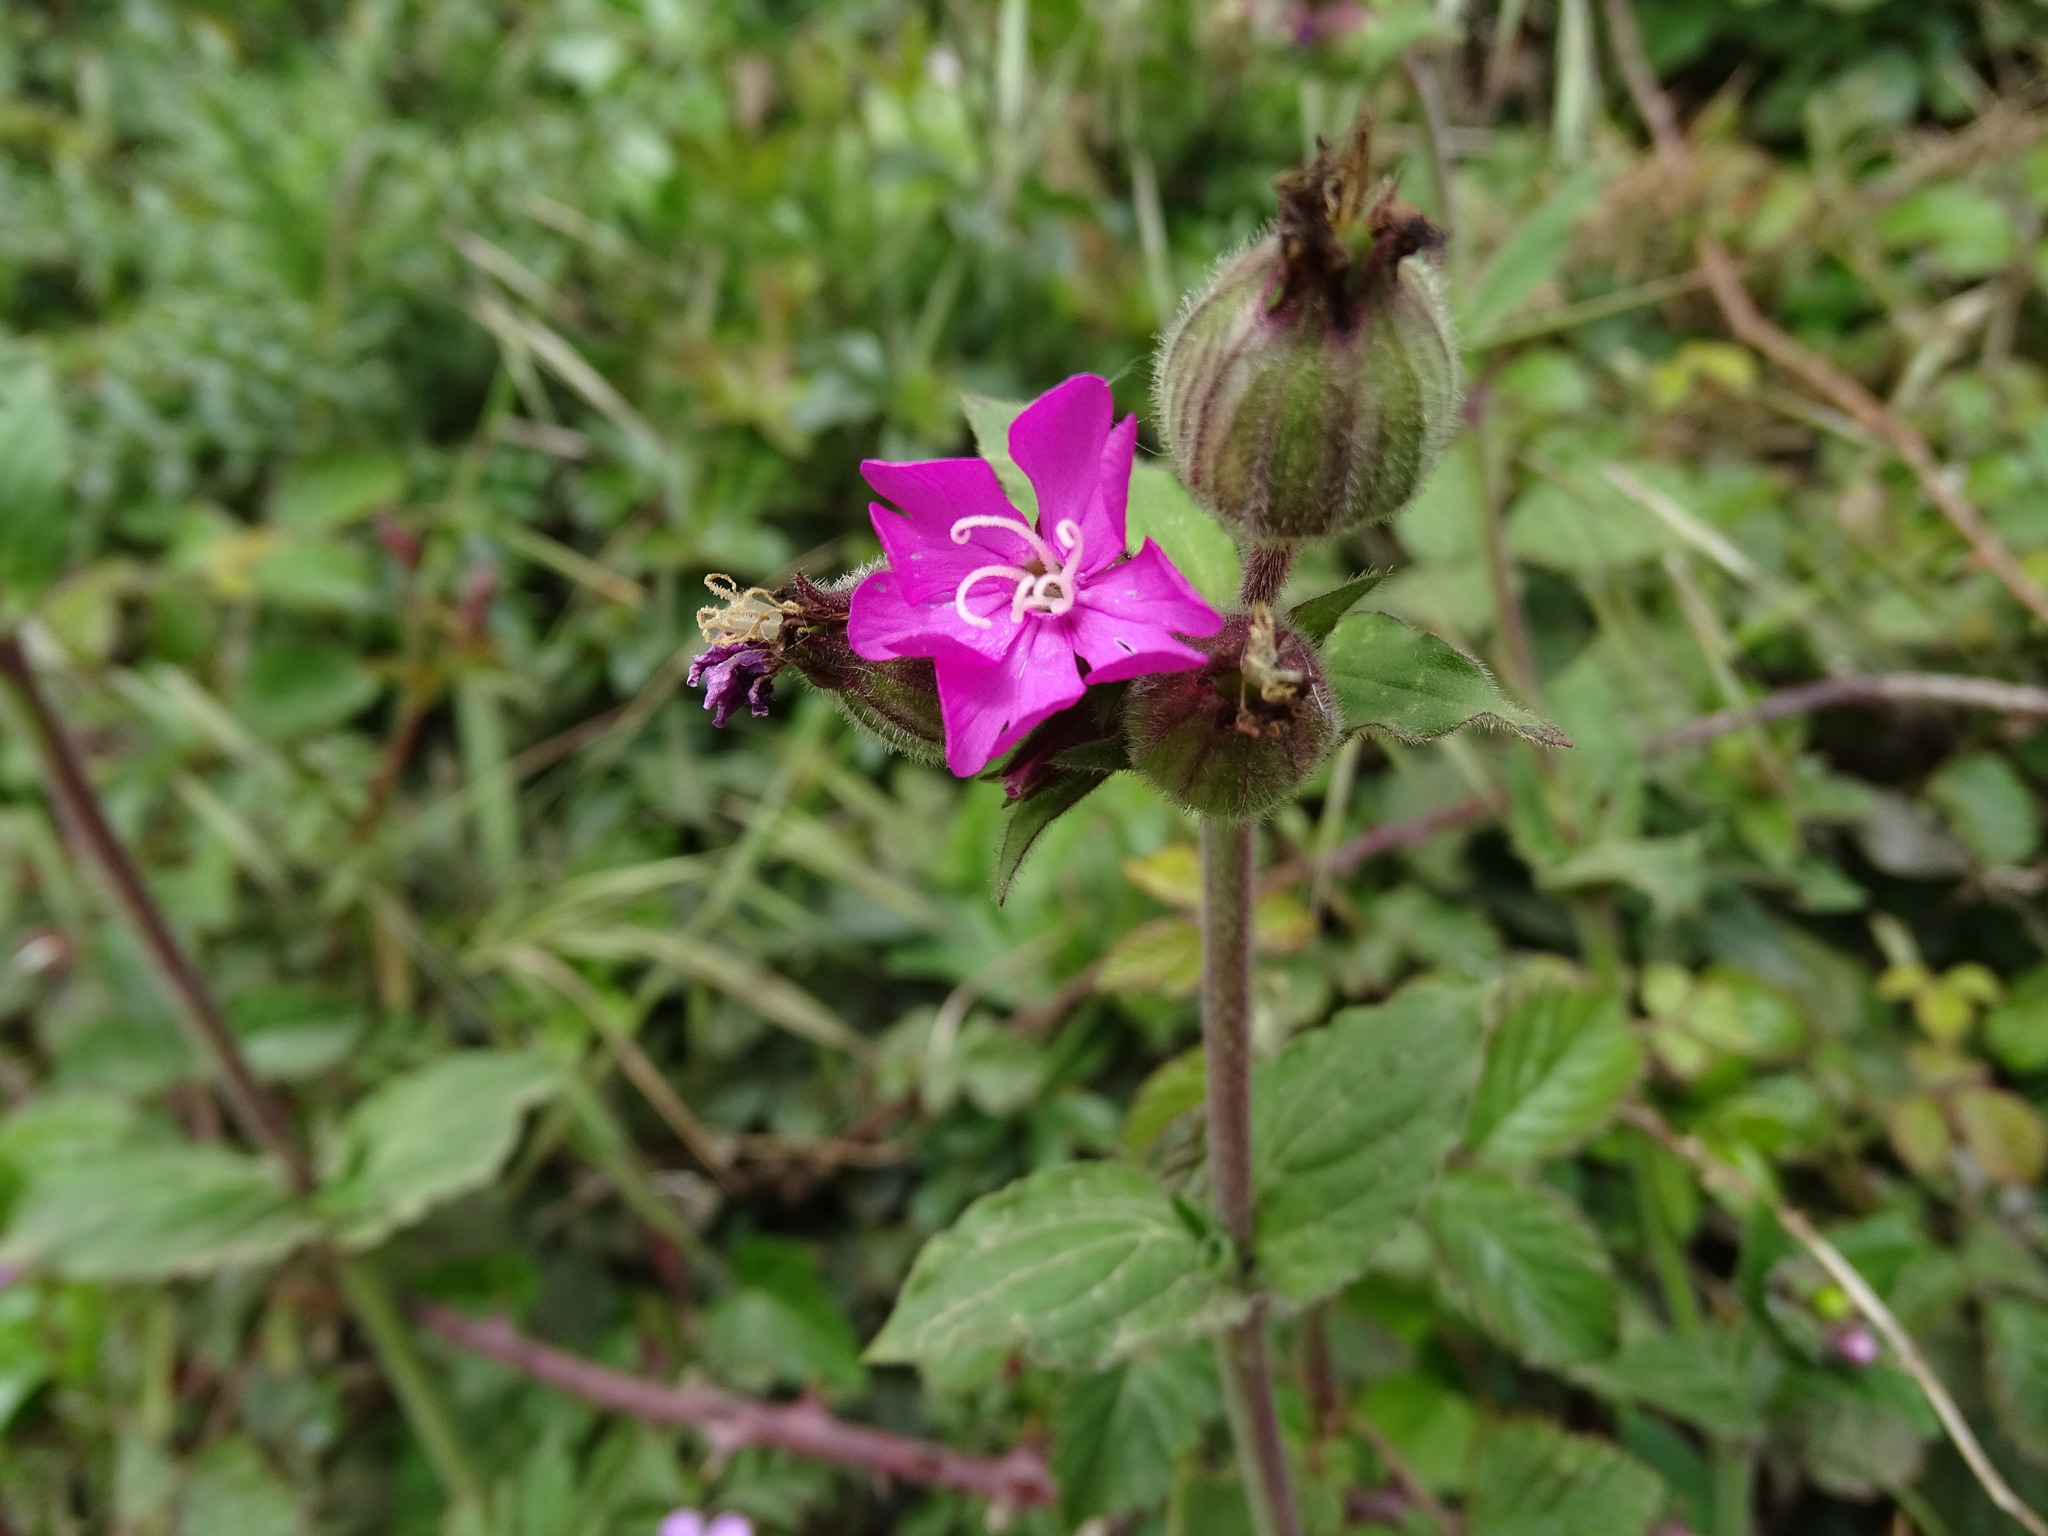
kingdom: Plantae
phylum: Tracheophyta
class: Magnoliopsida
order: Caryophyllales
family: Caryophyllaceae
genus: Silene
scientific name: Silene dioica
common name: Red campion
